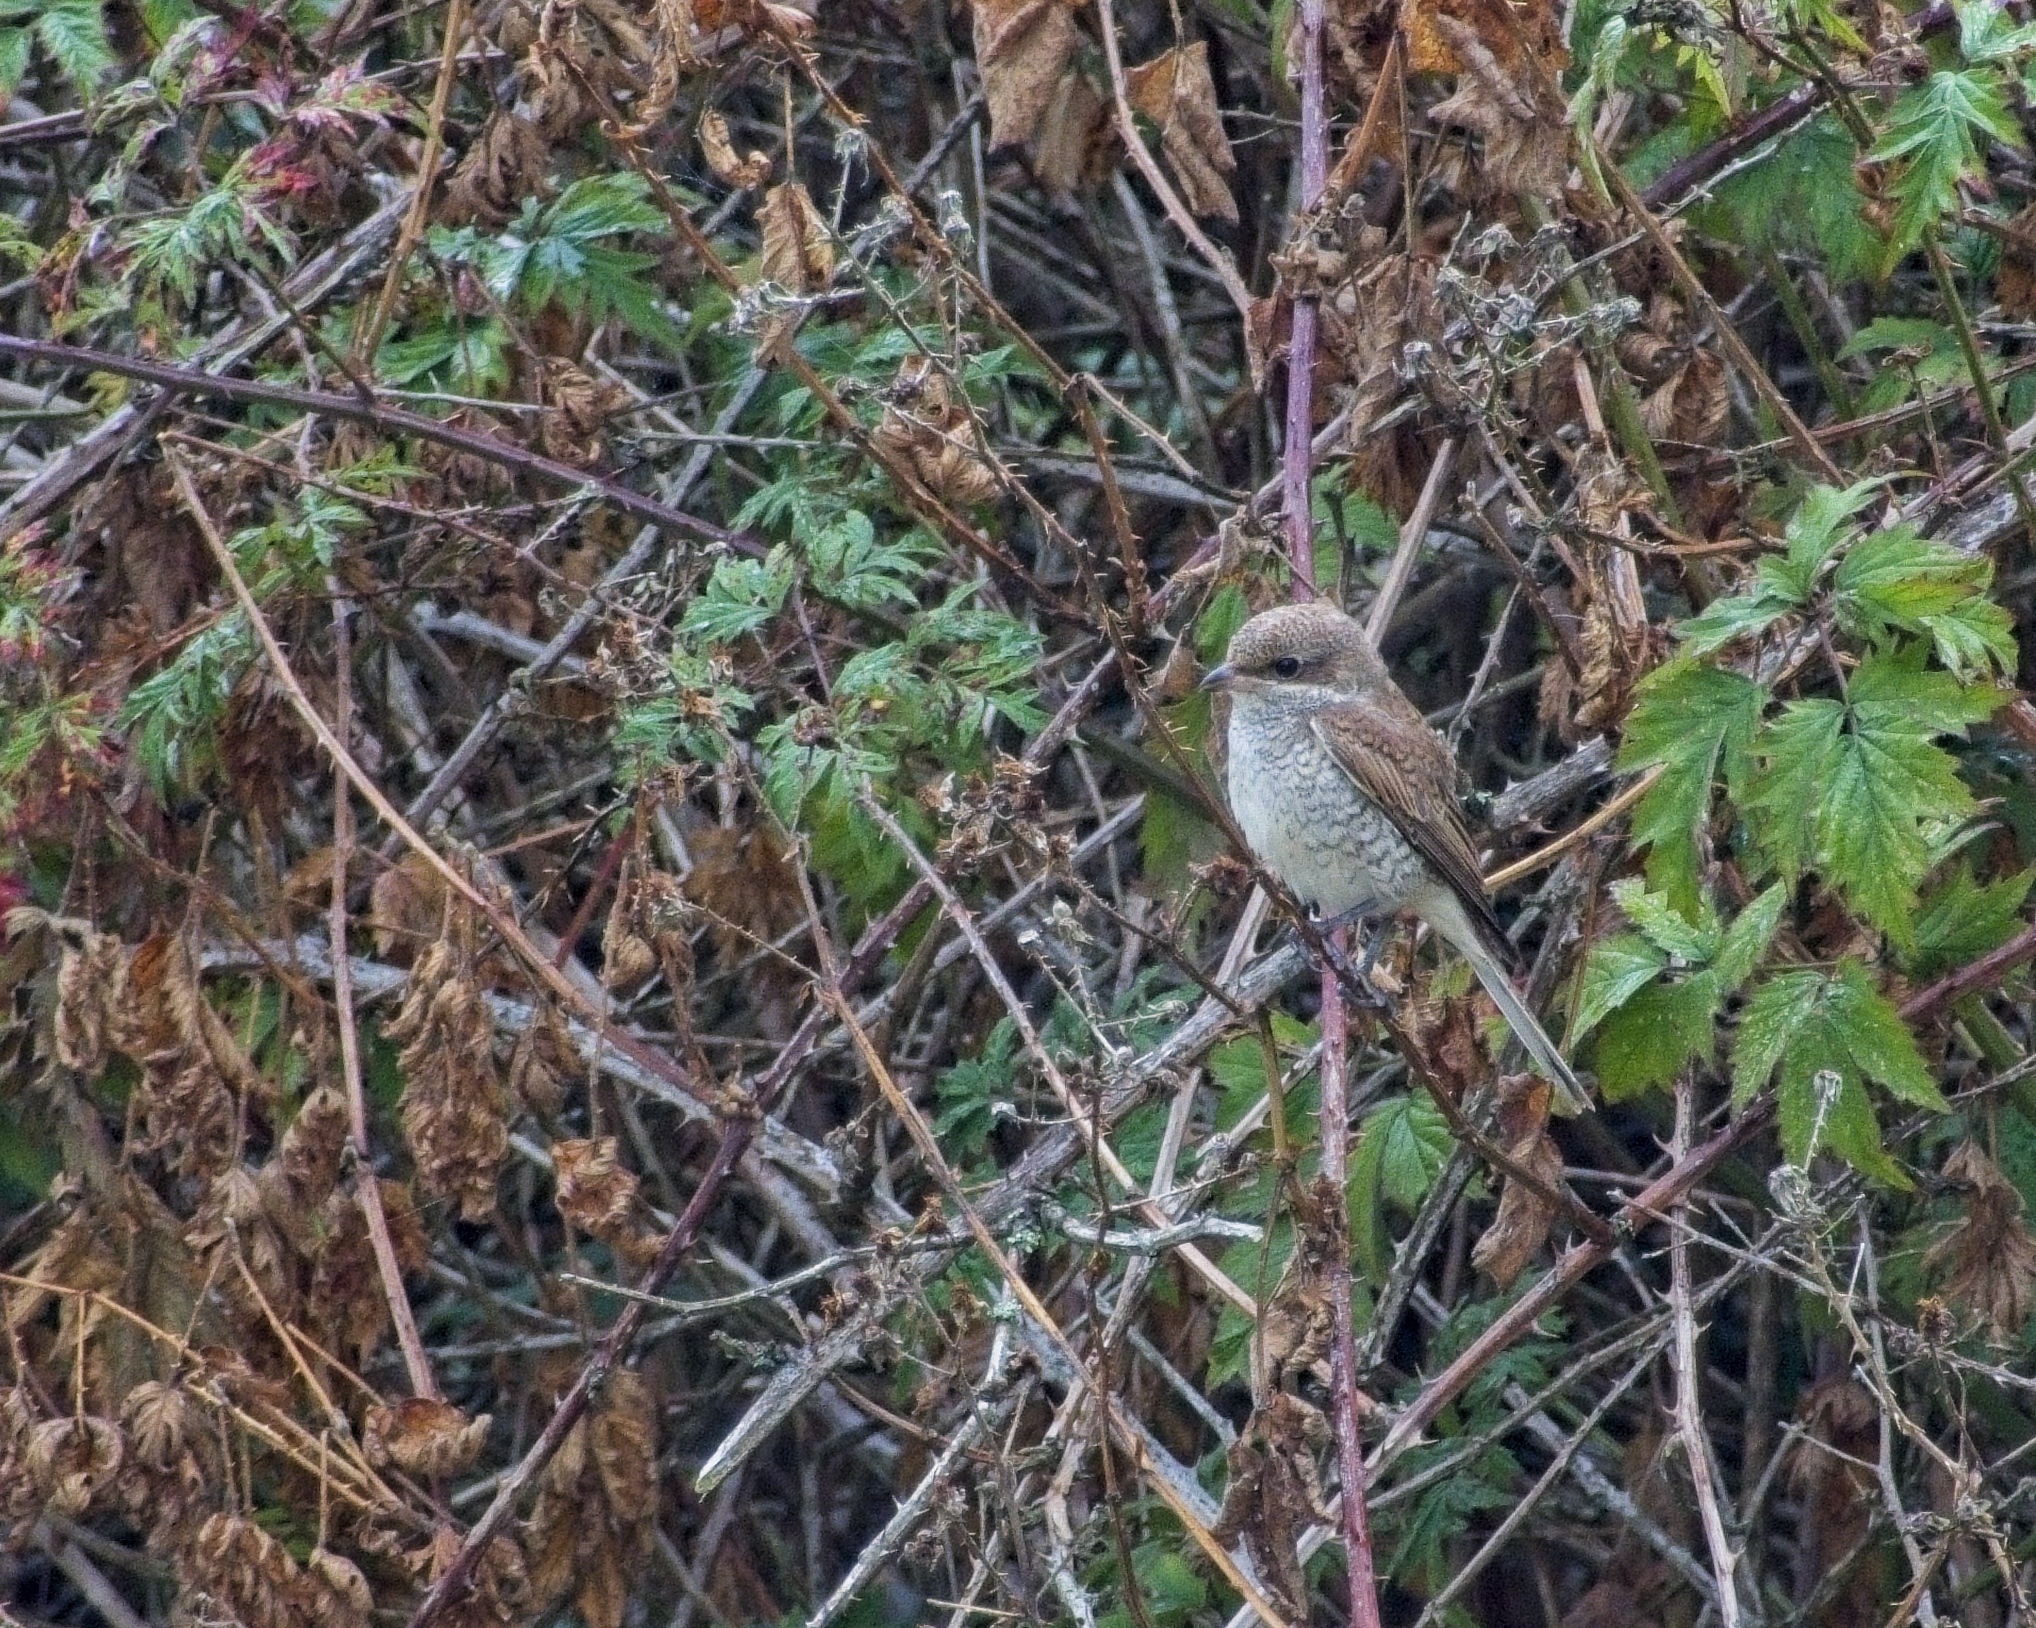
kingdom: Animalia
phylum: Chordata
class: Aves
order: Passeriformes
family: Laniidae
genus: Lanius
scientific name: Lanius collurio
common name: Red-backed shrike
